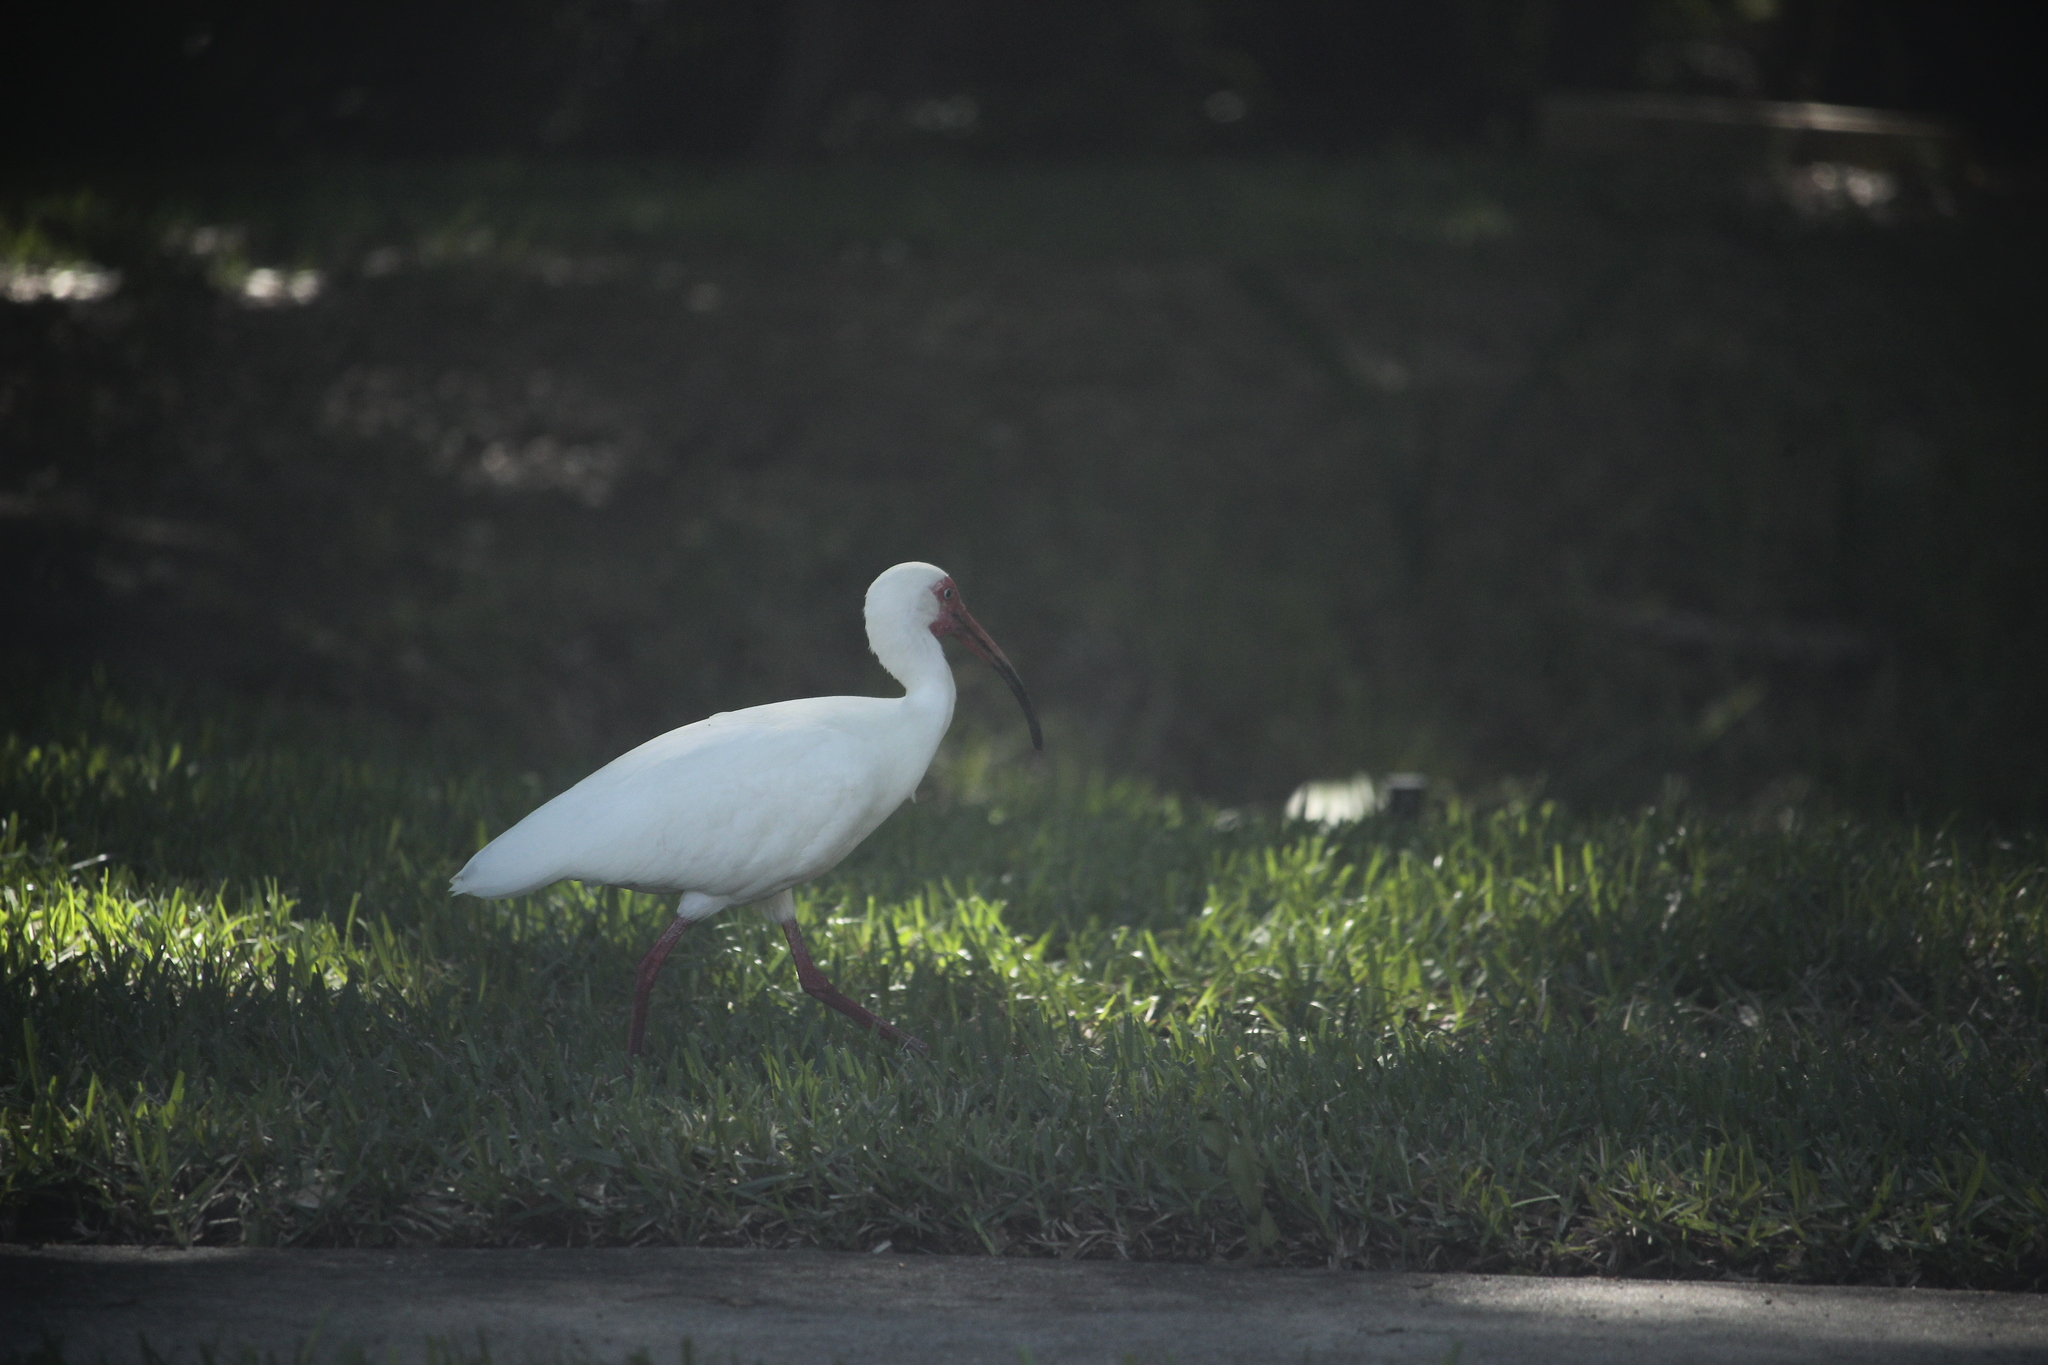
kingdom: Animalia
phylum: Chordata
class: Aves
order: Pelecaniformes
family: Threskiornithidae
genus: Eudocimus
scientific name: Eudocimus albus
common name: White ibis
